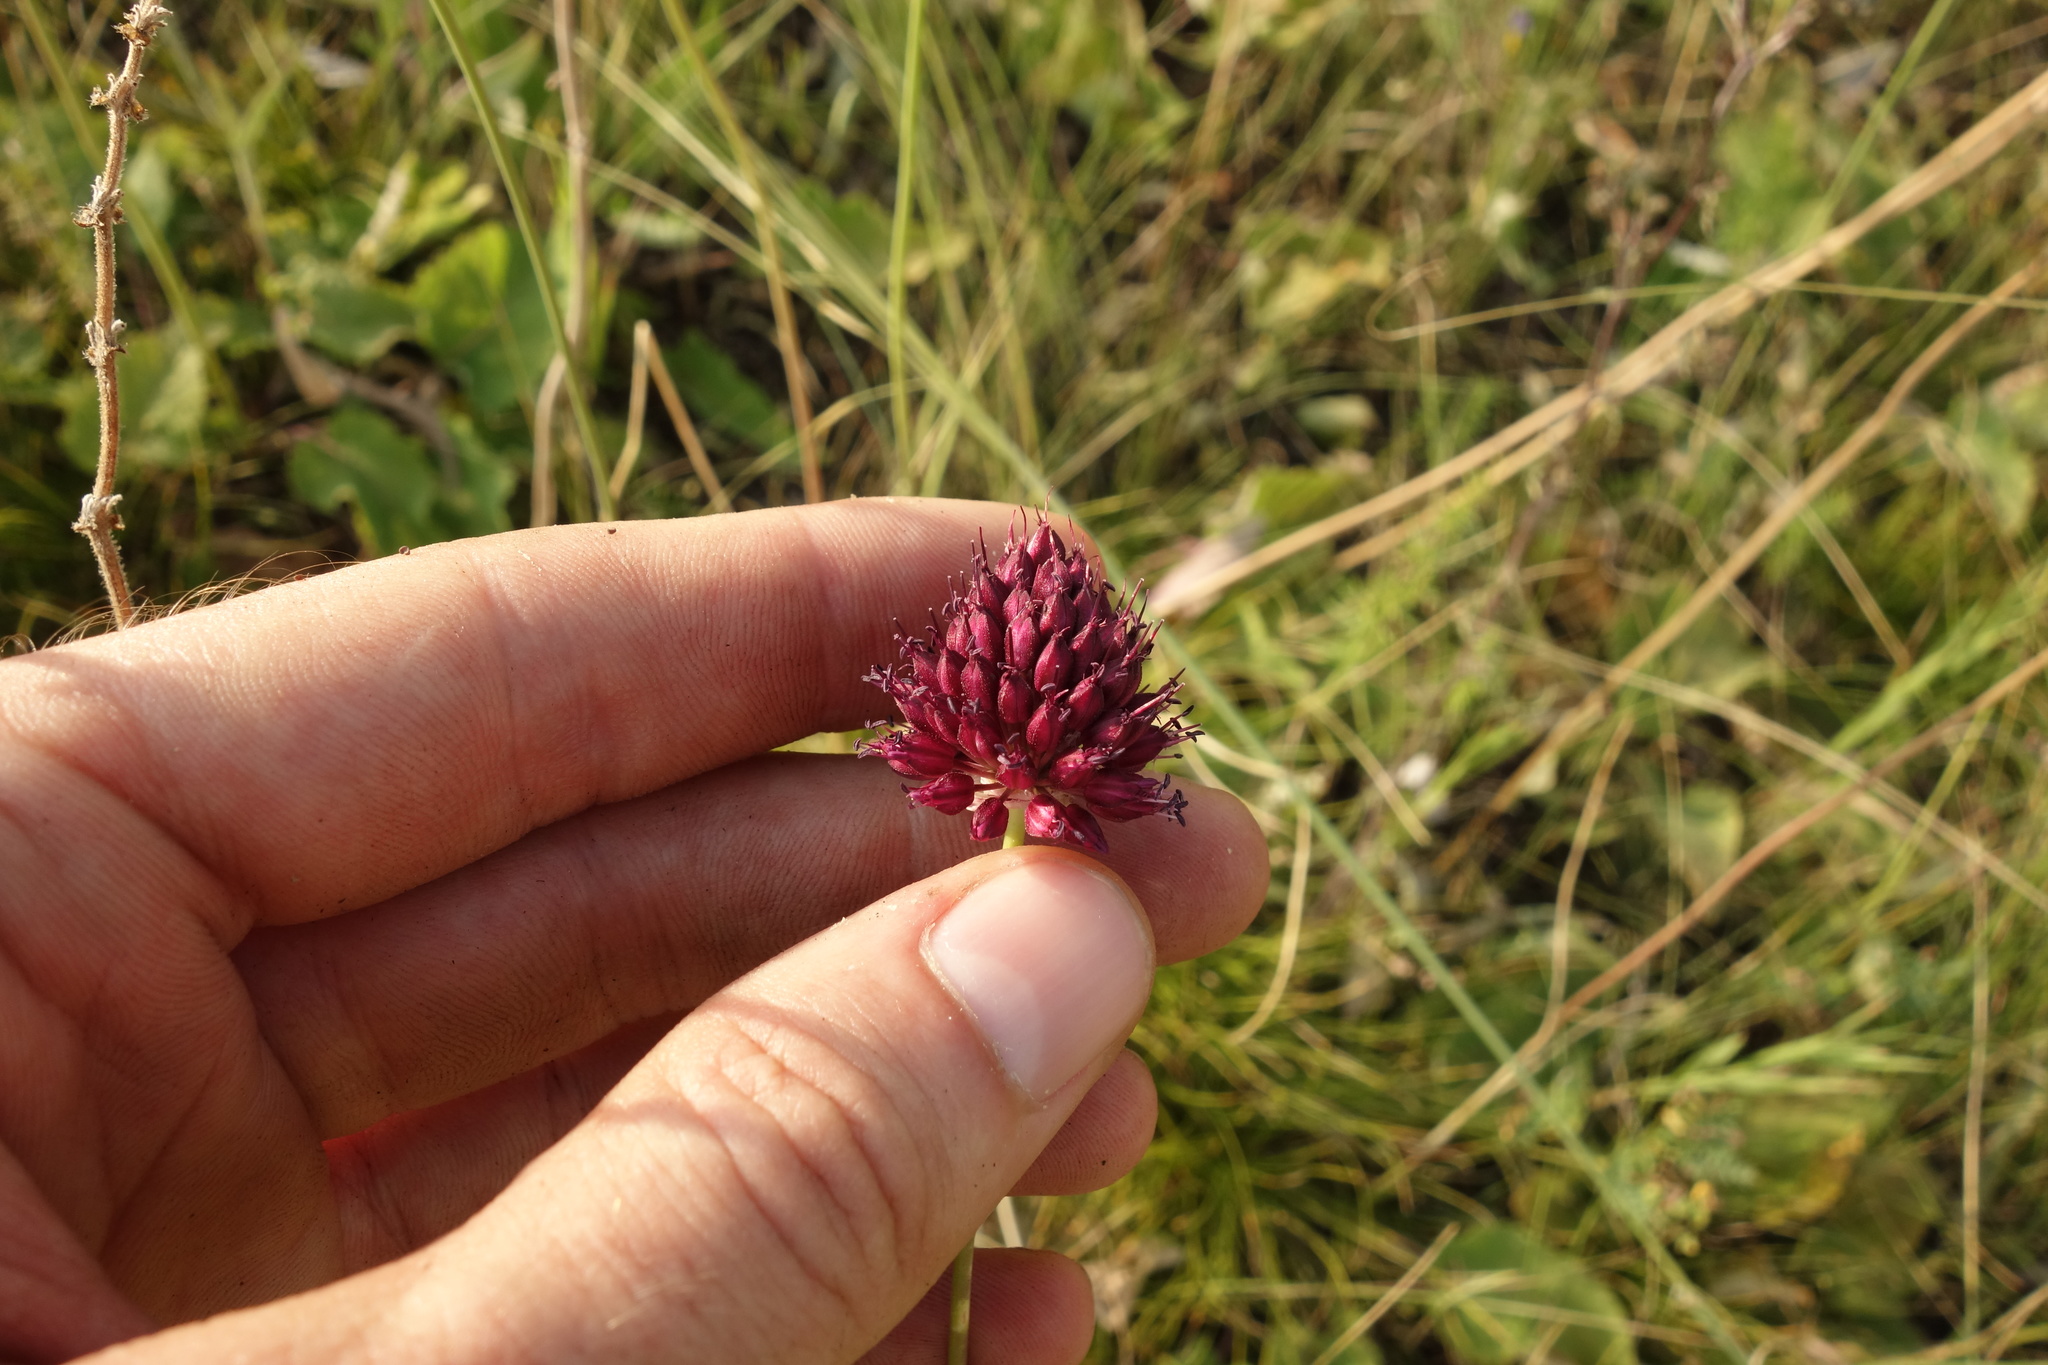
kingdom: Plantae
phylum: Tracheophyta
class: Liliopsida
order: Asparagales
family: Amaryllidaceae
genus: Allium
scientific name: Allium sphaerocephalon
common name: Round-headed leek
